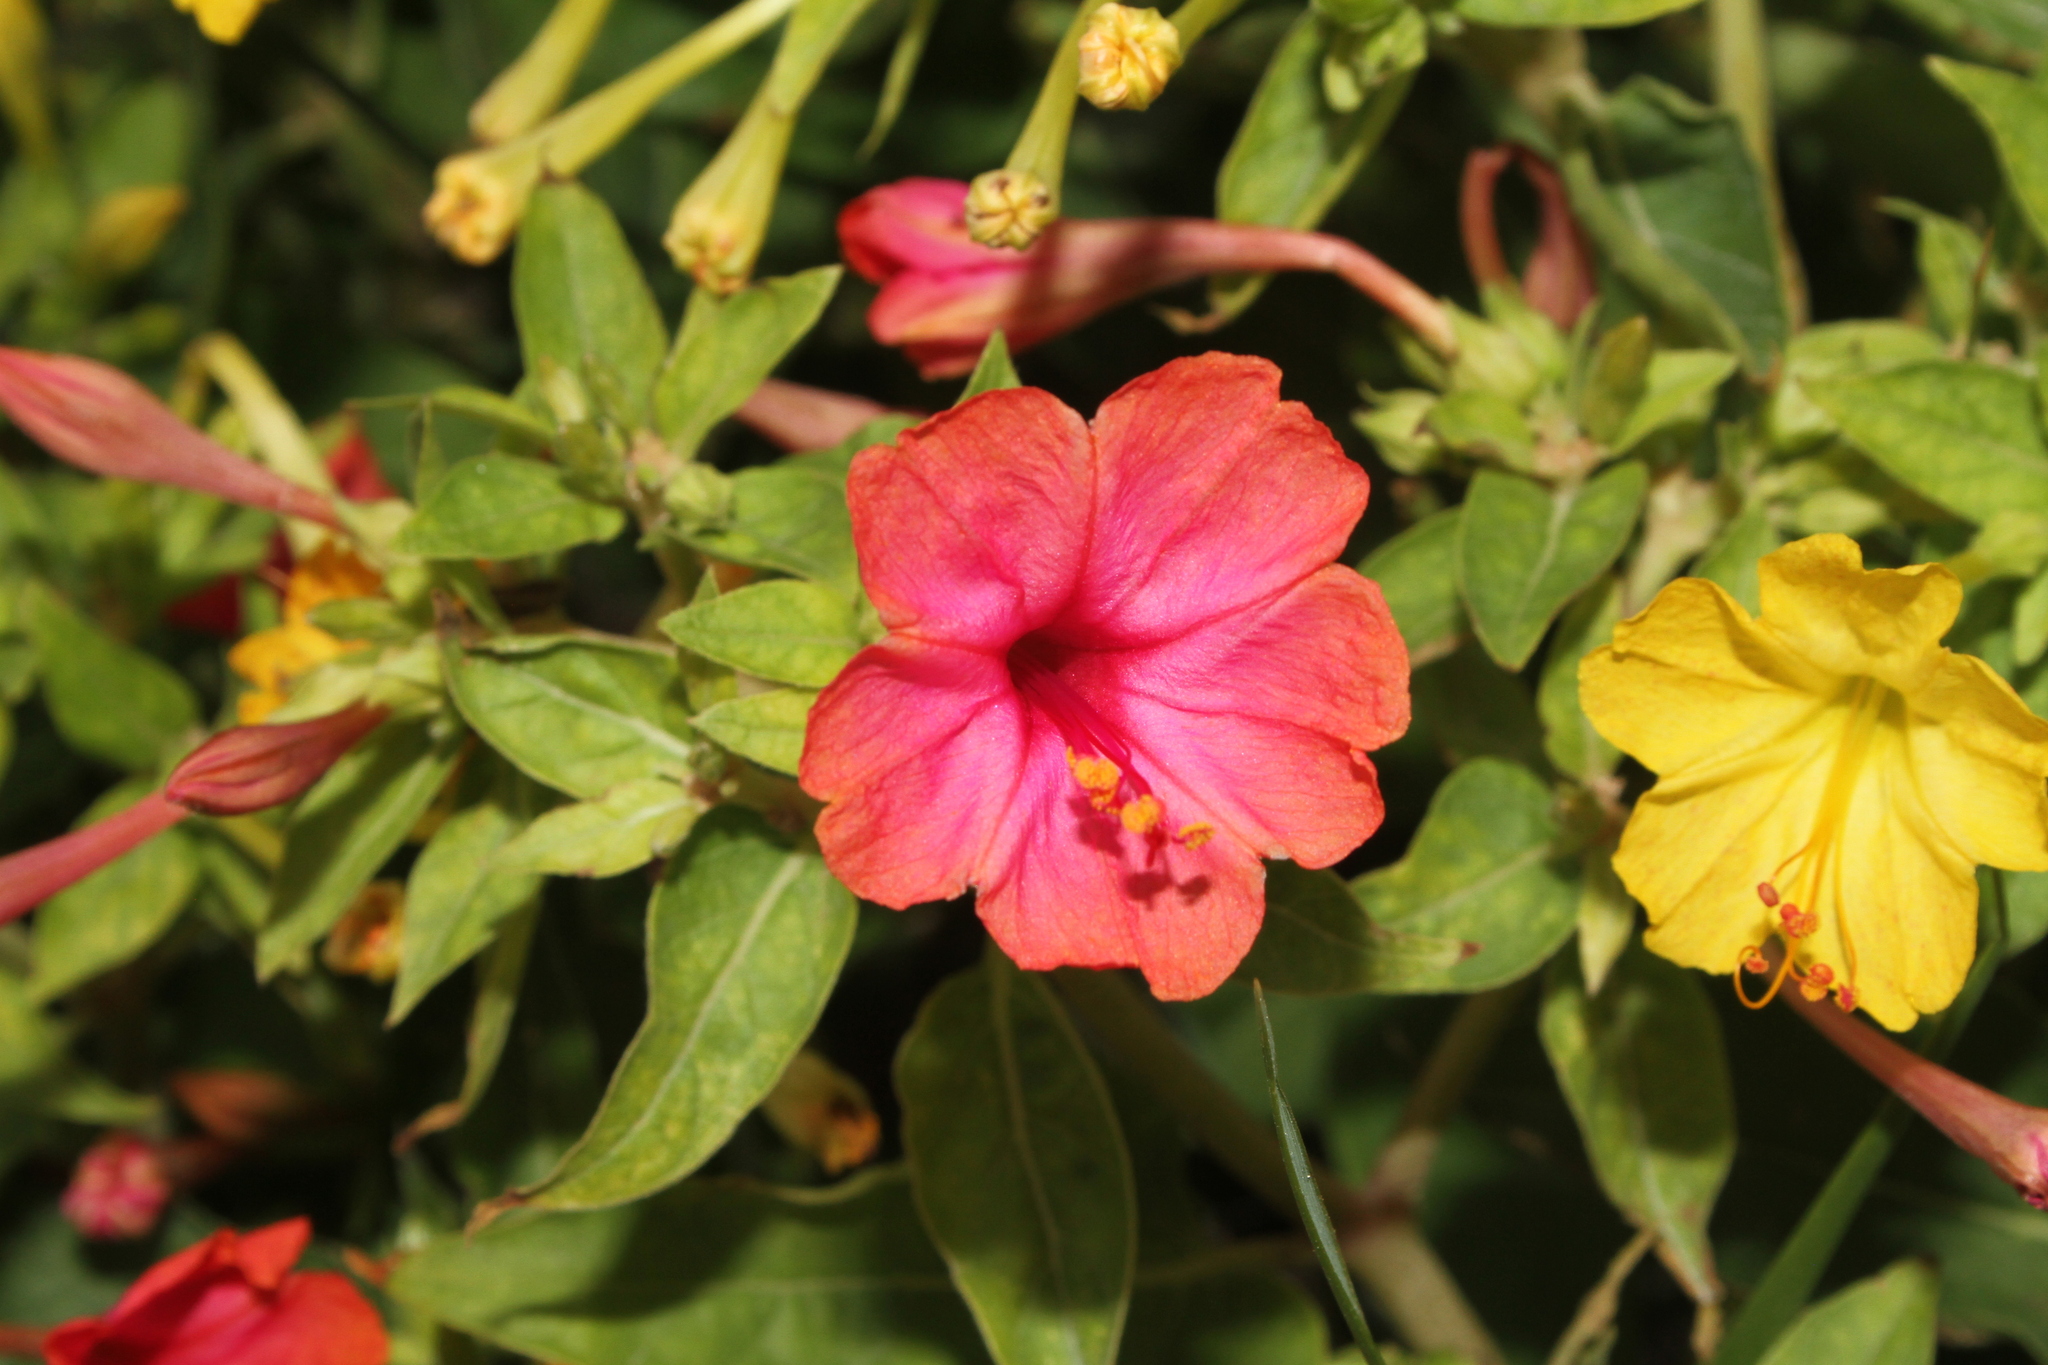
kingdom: Plantae
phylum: Tracheophyta
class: Magnoliopsida
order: Caryophyllales
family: Nyctaginaceae
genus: Mirabilis
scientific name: Mirabilis jalapa
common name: Marvel-of-peru
